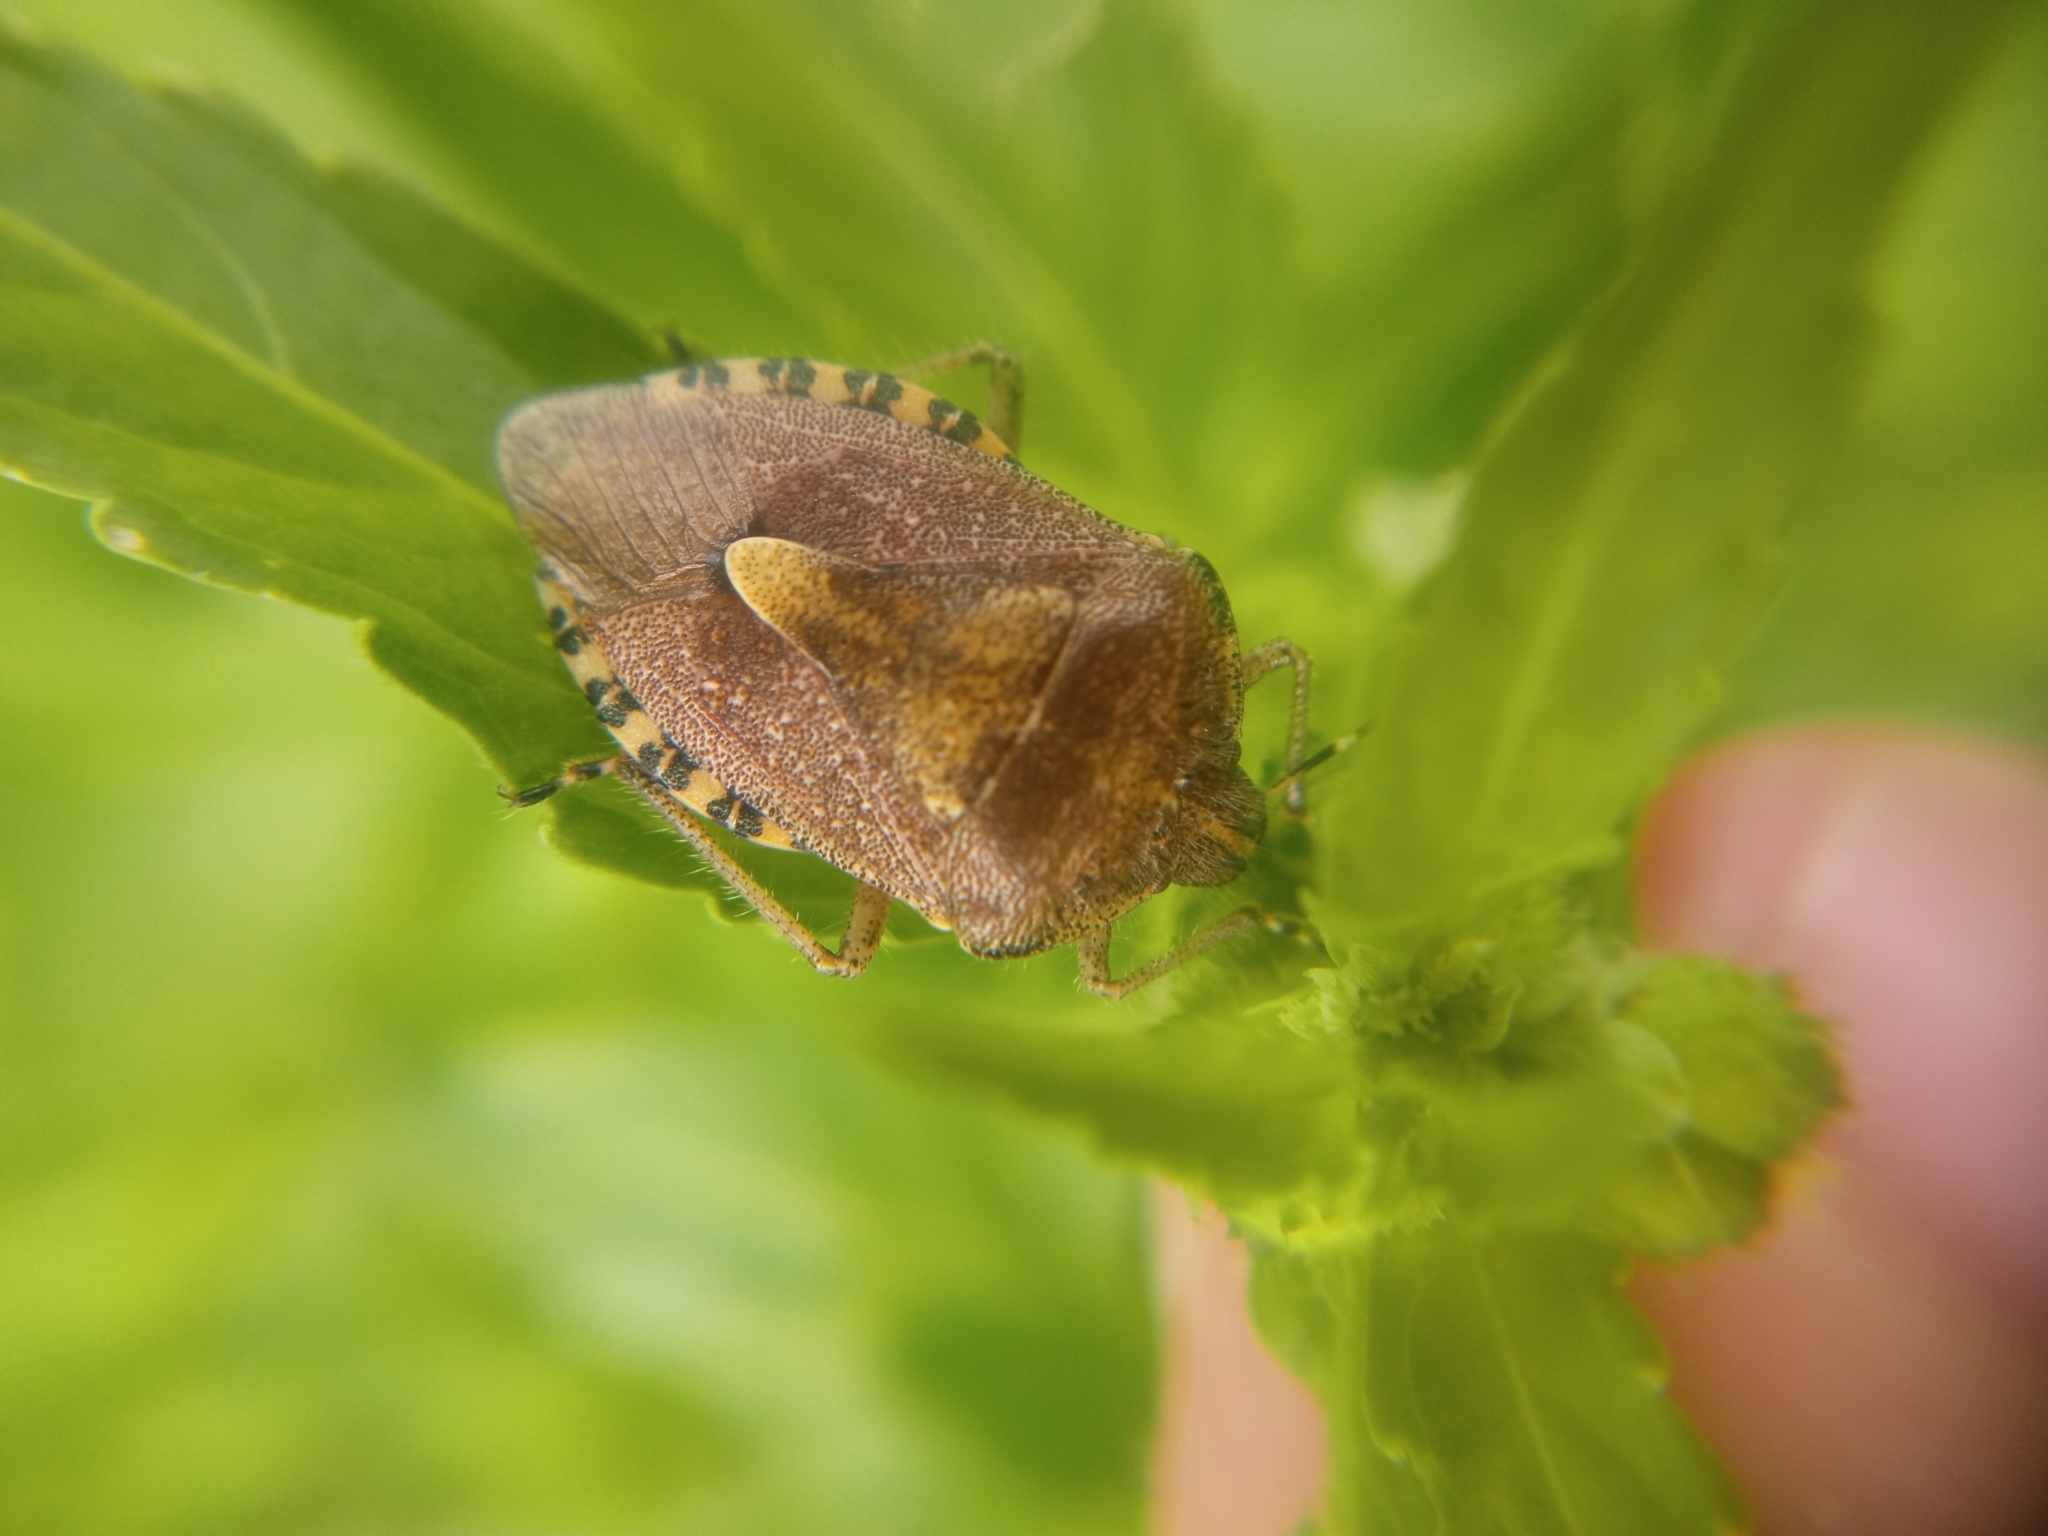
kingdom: Animalia
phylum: Arthropoda
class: Insecta
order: Hemiptera
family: Pentatomidae
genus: Dolycoris
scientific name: Dolycoris baccarum
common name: Sloe bug
